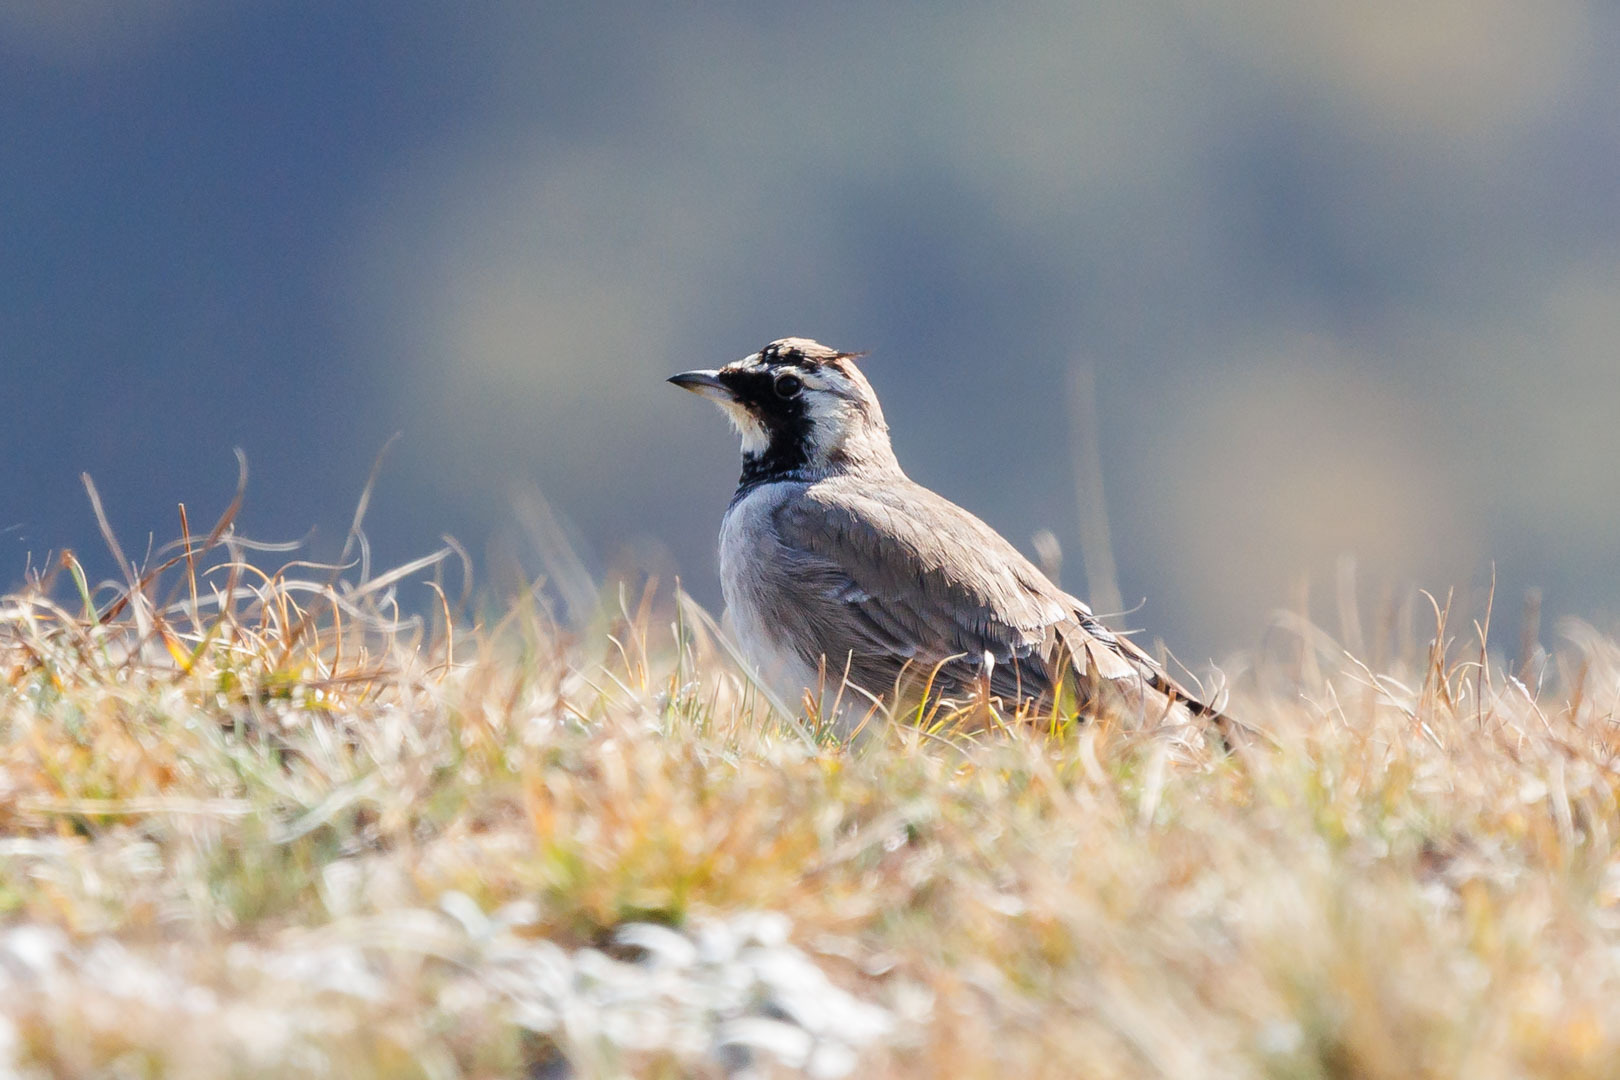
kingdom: Animalia
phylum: Chordata
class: Aves
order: Passeriformes
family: Alaudidae
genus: Eremophila
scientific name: Eremophila alpestris
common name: Horned lark
